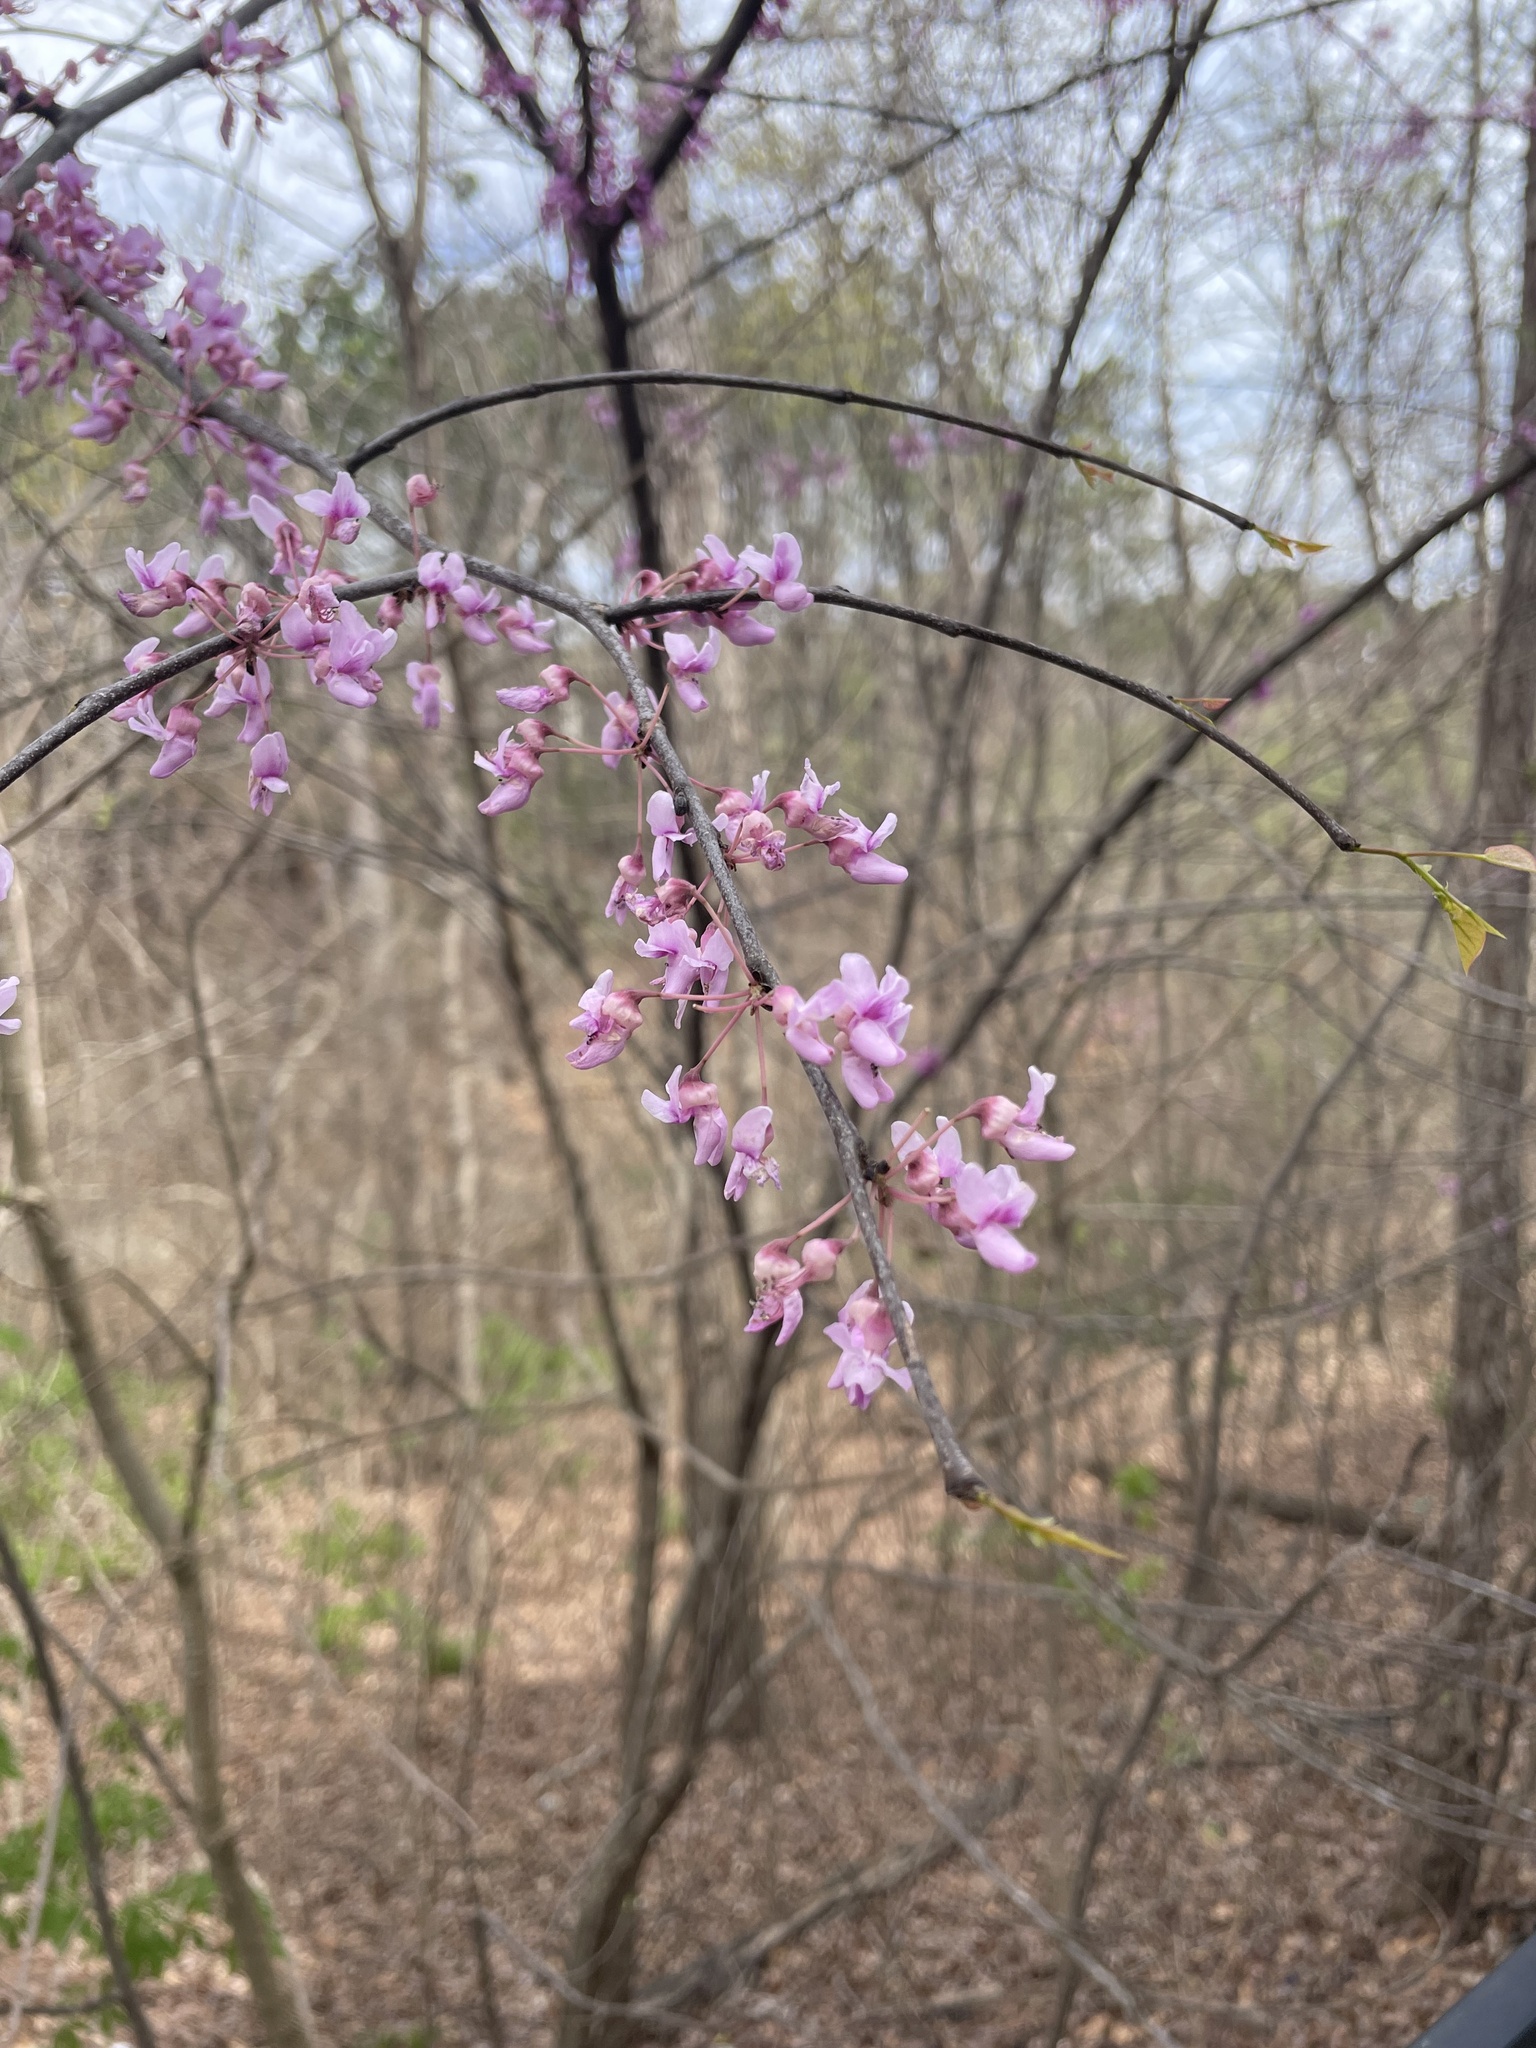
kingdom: Plantae
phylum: Tracheophyta
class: Magnoliopsida
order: Fabales
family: Fabaceae
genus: Cercis
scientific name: Cercis canadensis
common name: Eastern redbud
